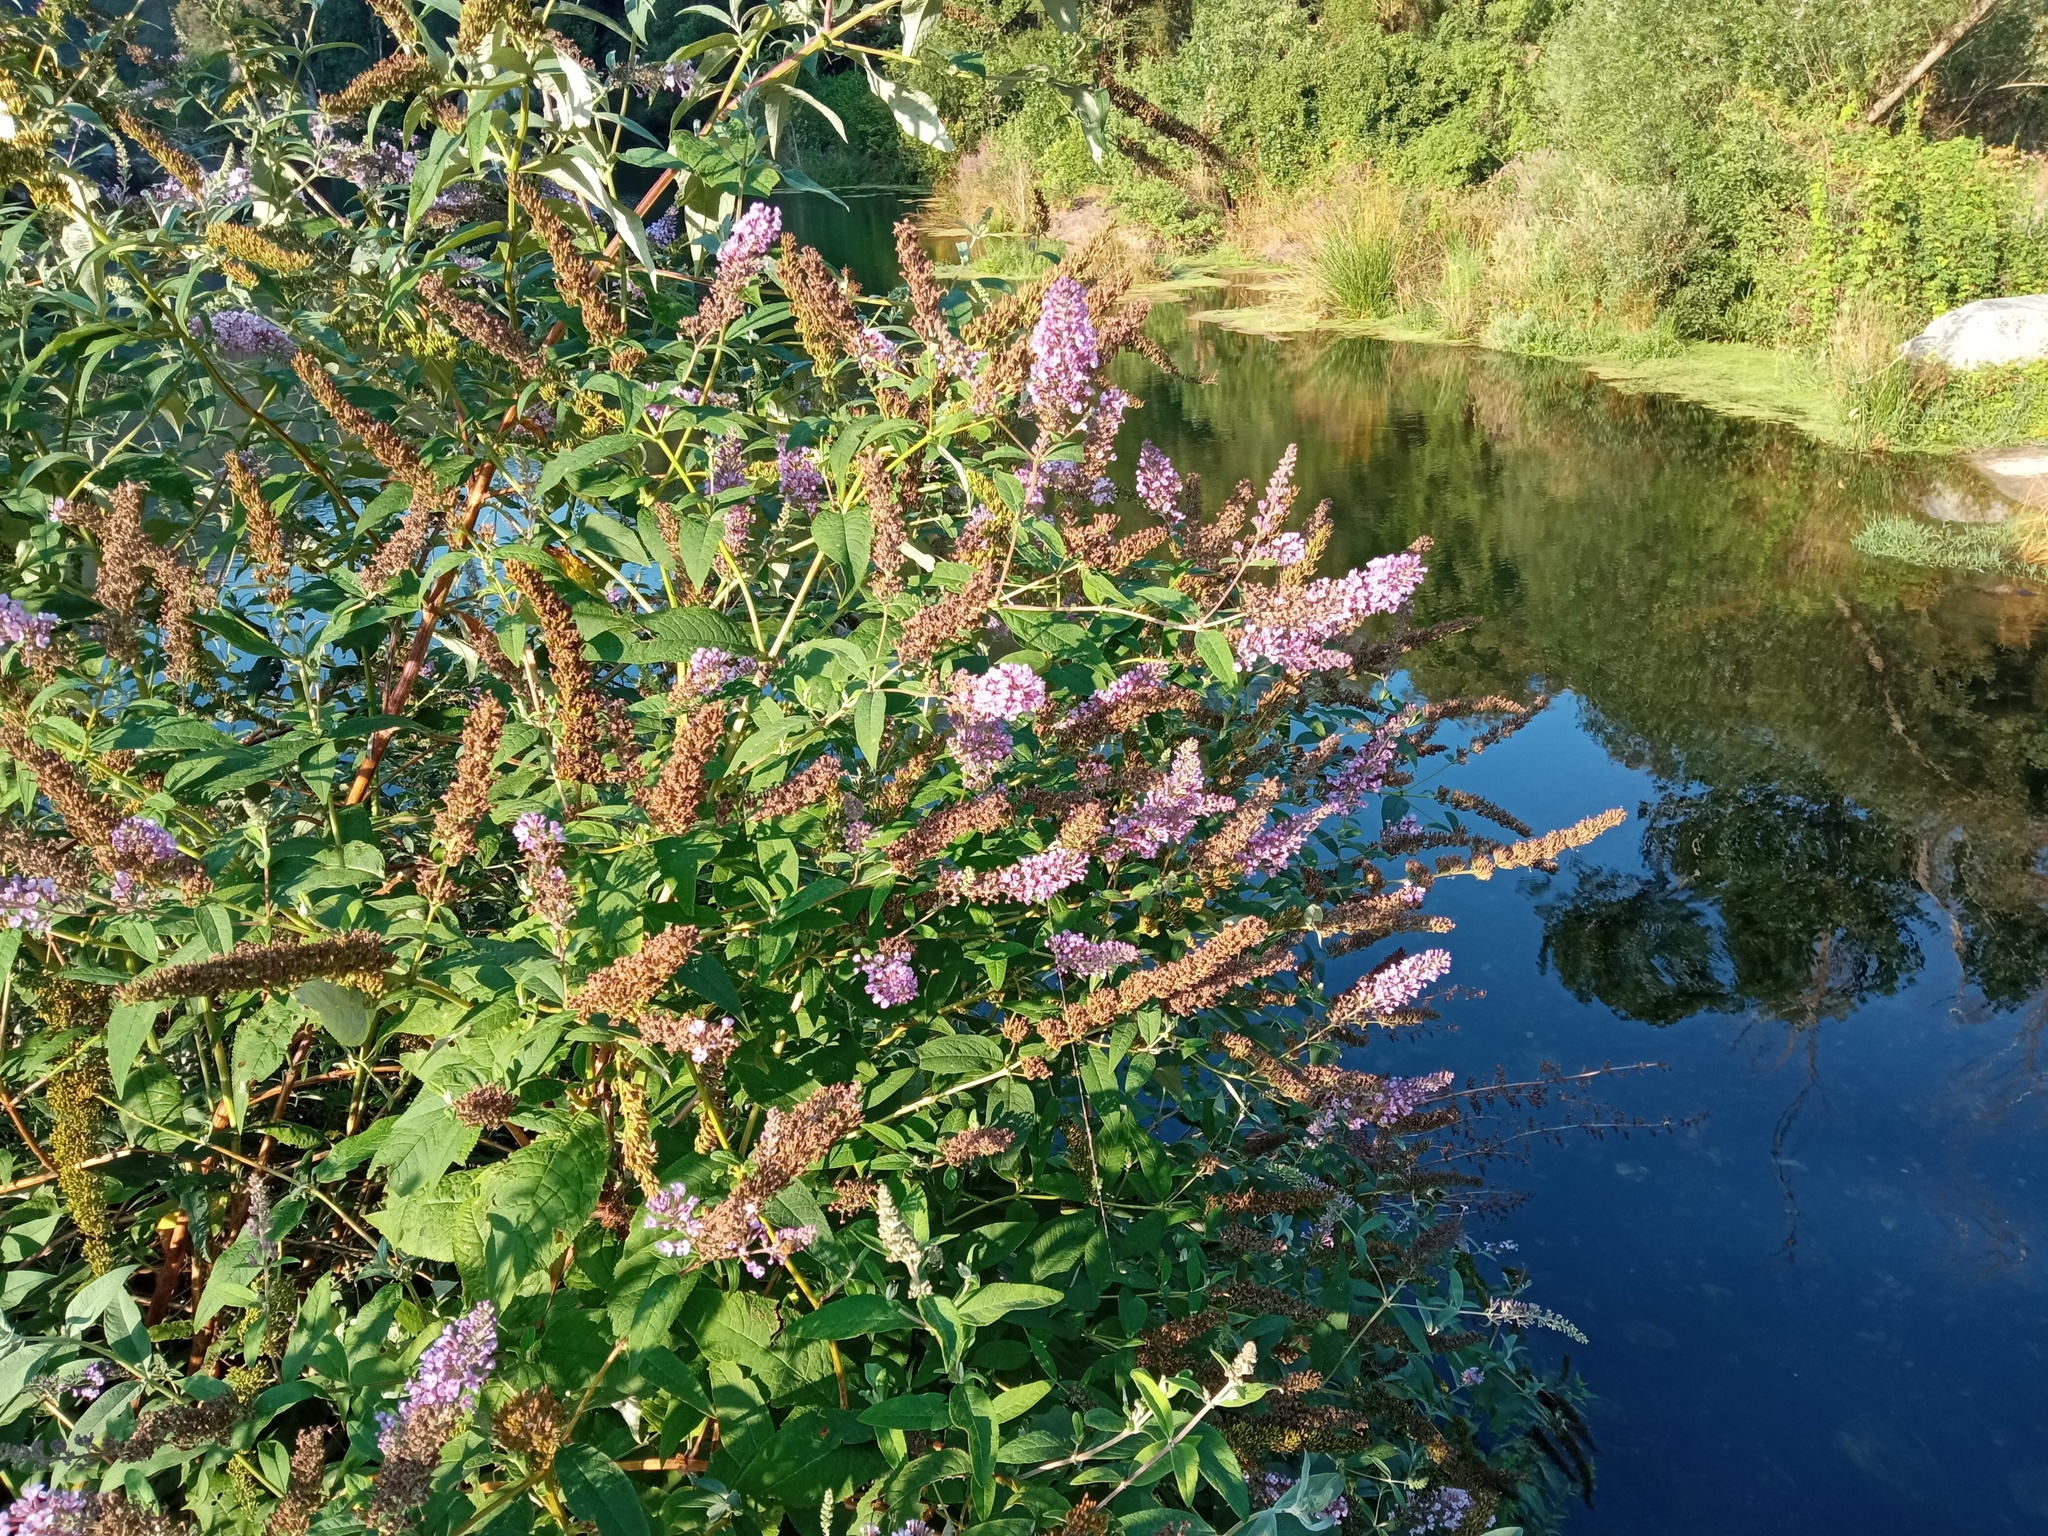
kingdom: Plantae
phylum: Tracheophyta
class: Magnoliopsida
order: Lamiales
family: Scrophulariaceae
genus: Buddleja
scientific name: Buddleja davidii
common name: Butterfly-bush
